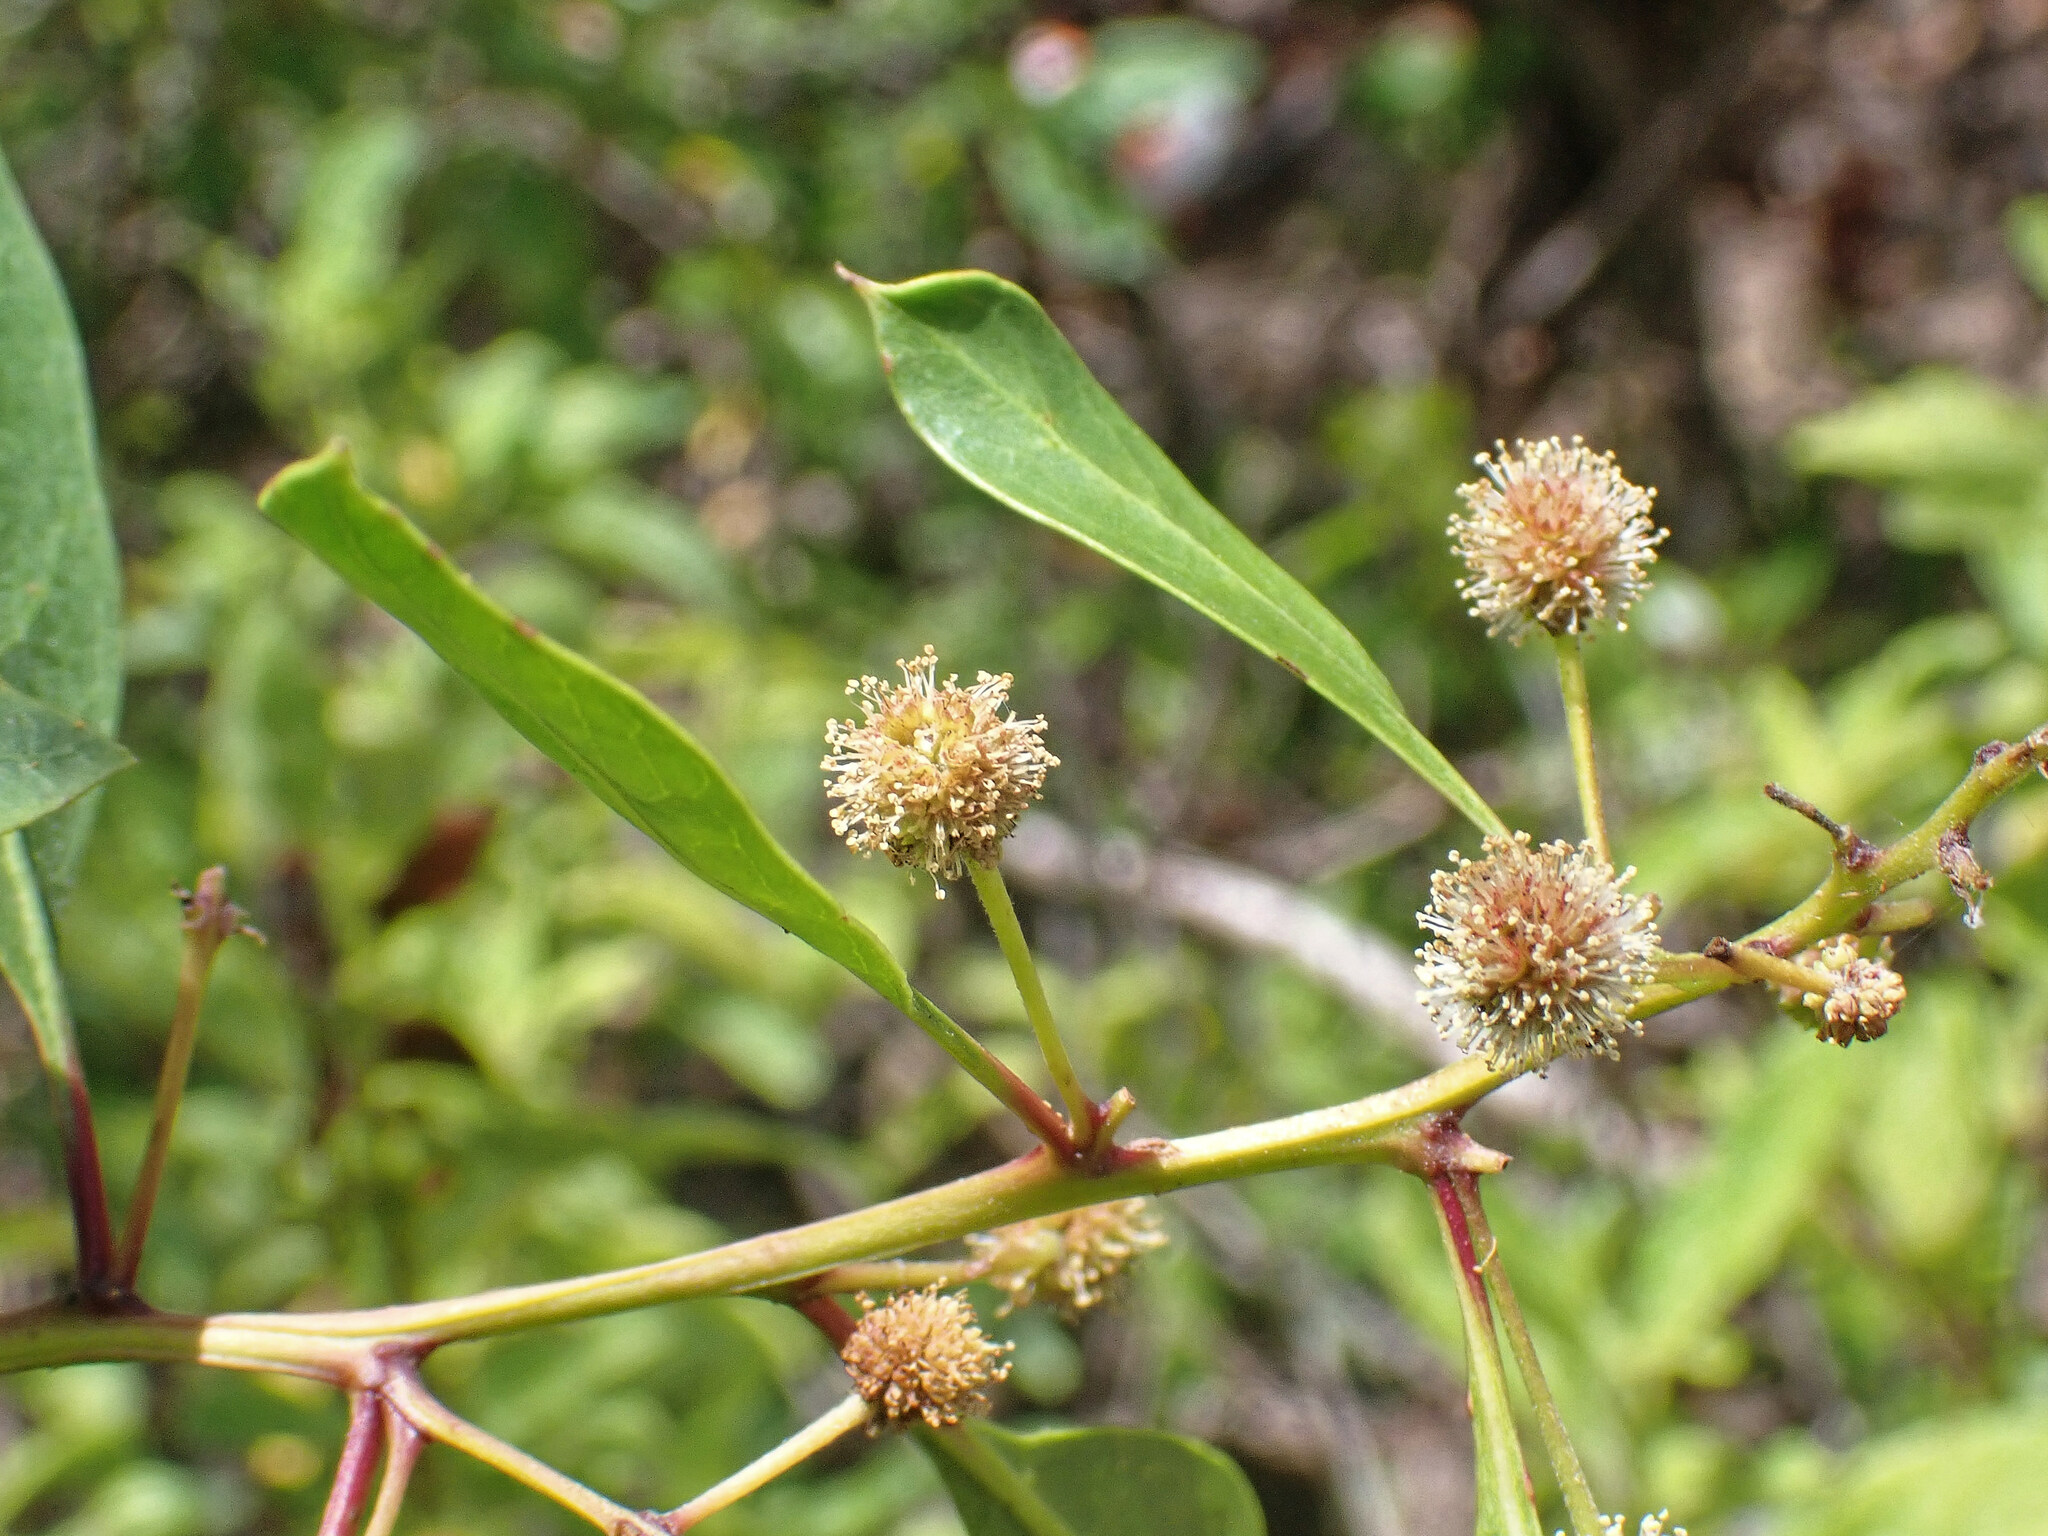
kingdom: Plantae
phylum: Tracheophyta
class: Magnoliopsida
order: Myrtales
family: Combretaceae
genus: Conocarpus
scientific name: Conocarpus erectus
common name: Button mangrove
